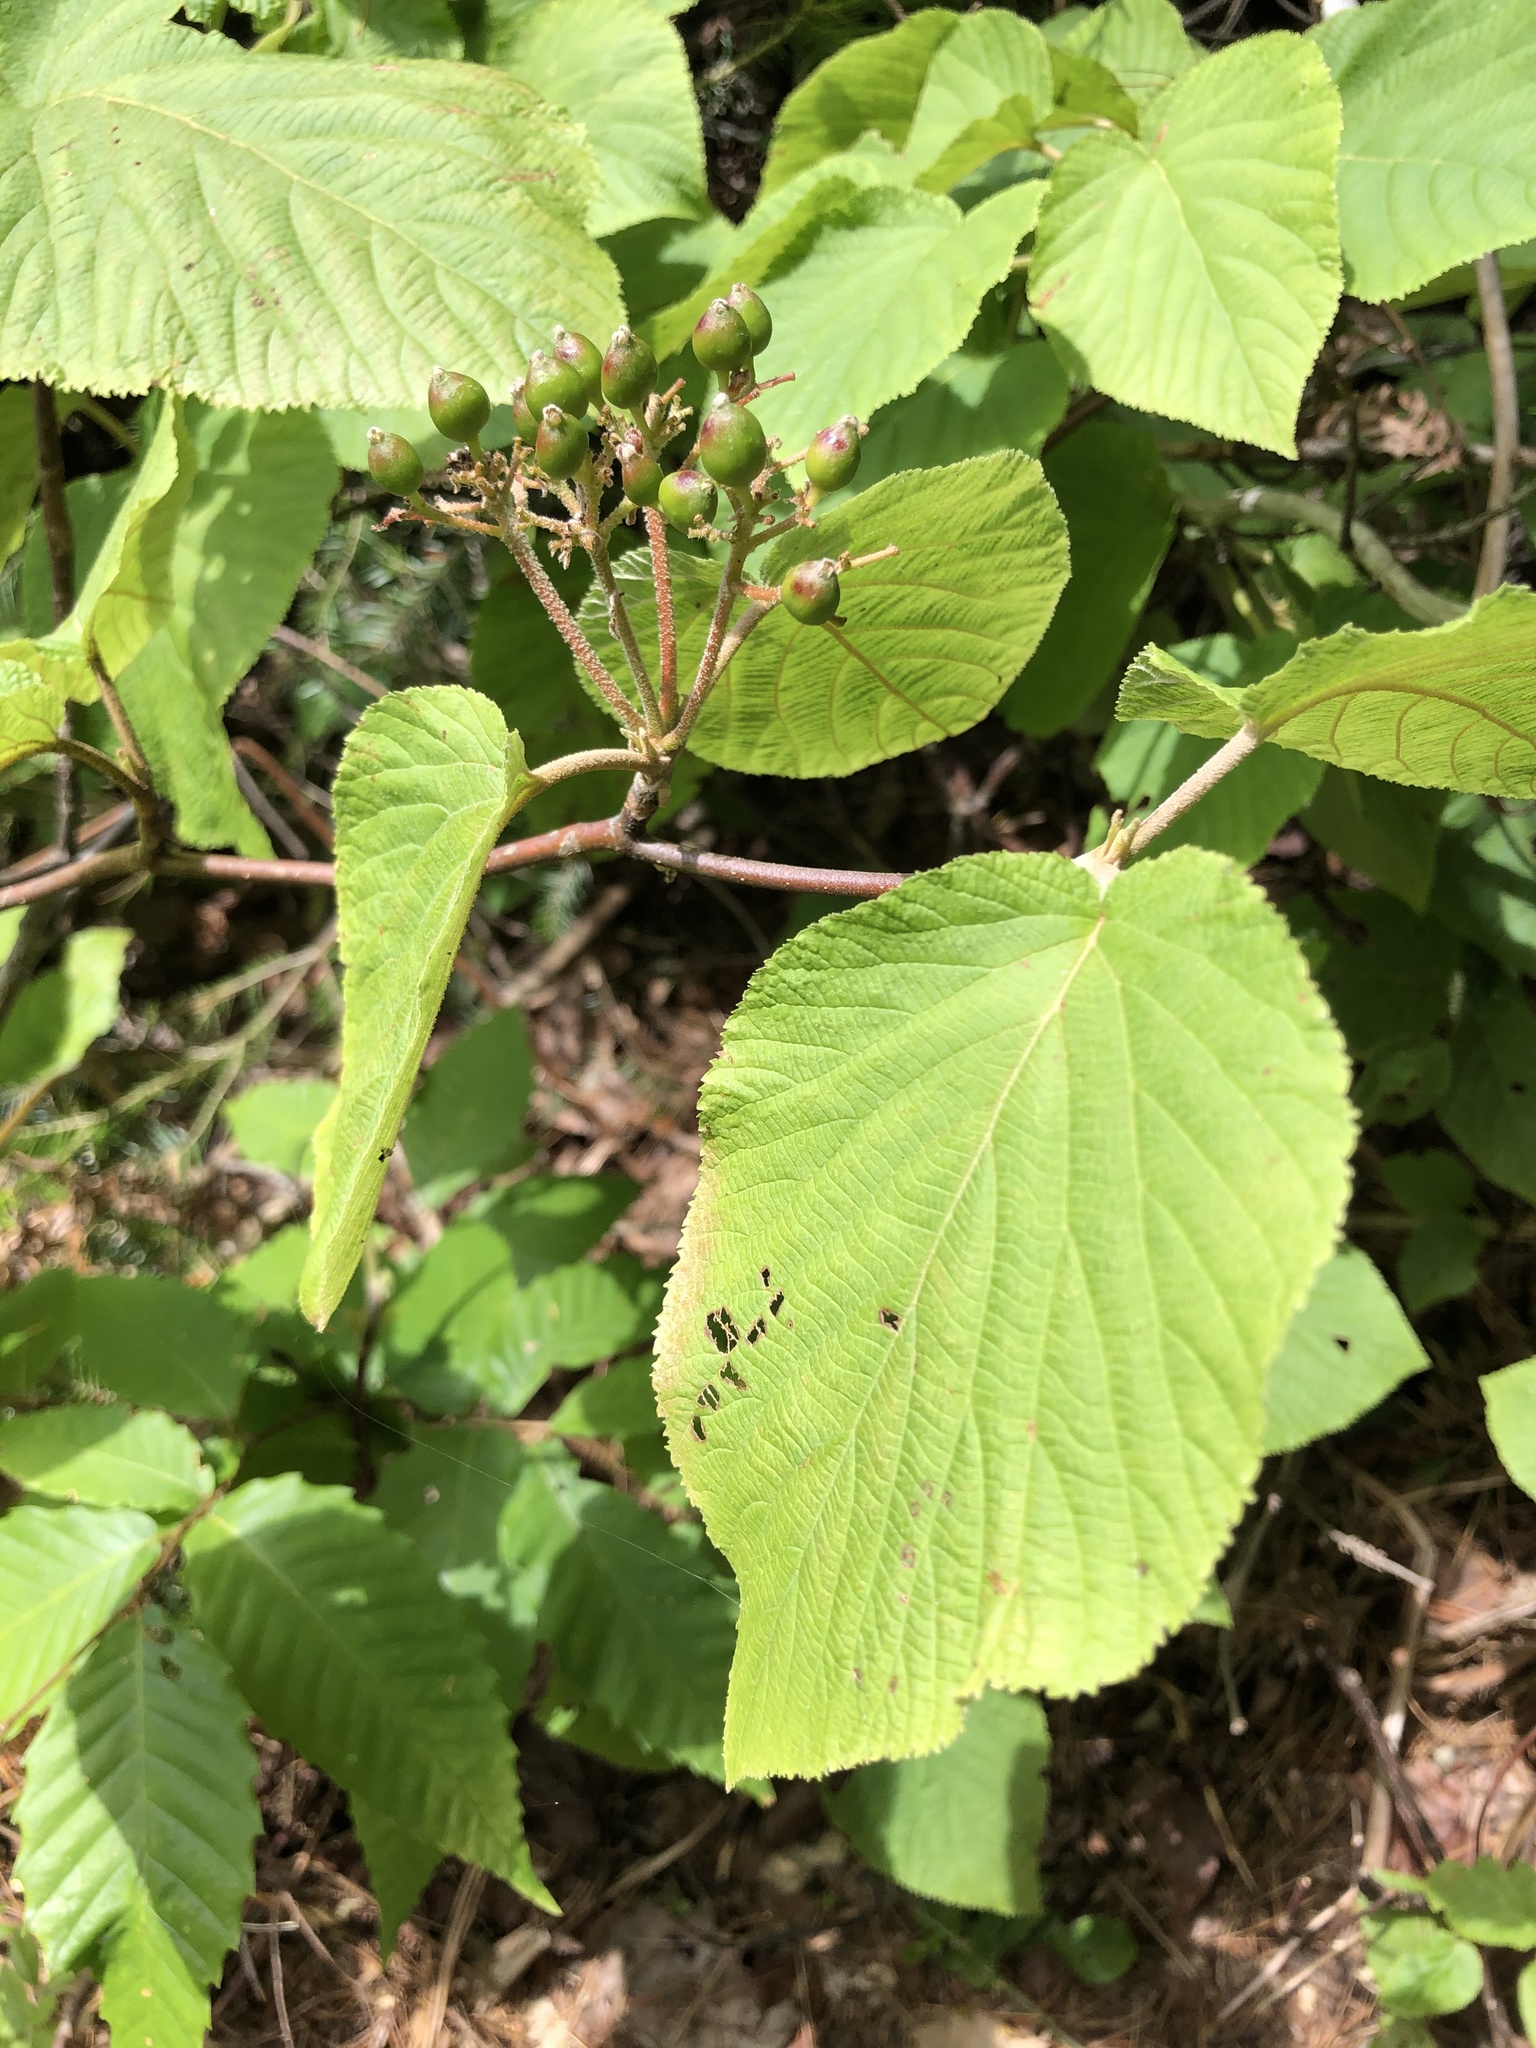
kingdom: Plantae
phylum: Tracheophyta
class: Magnoliopsida
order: Dipsacales
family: Viburnaceae
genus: Viburnum
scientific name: Viburnum lantanoides
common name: Hobblebush
